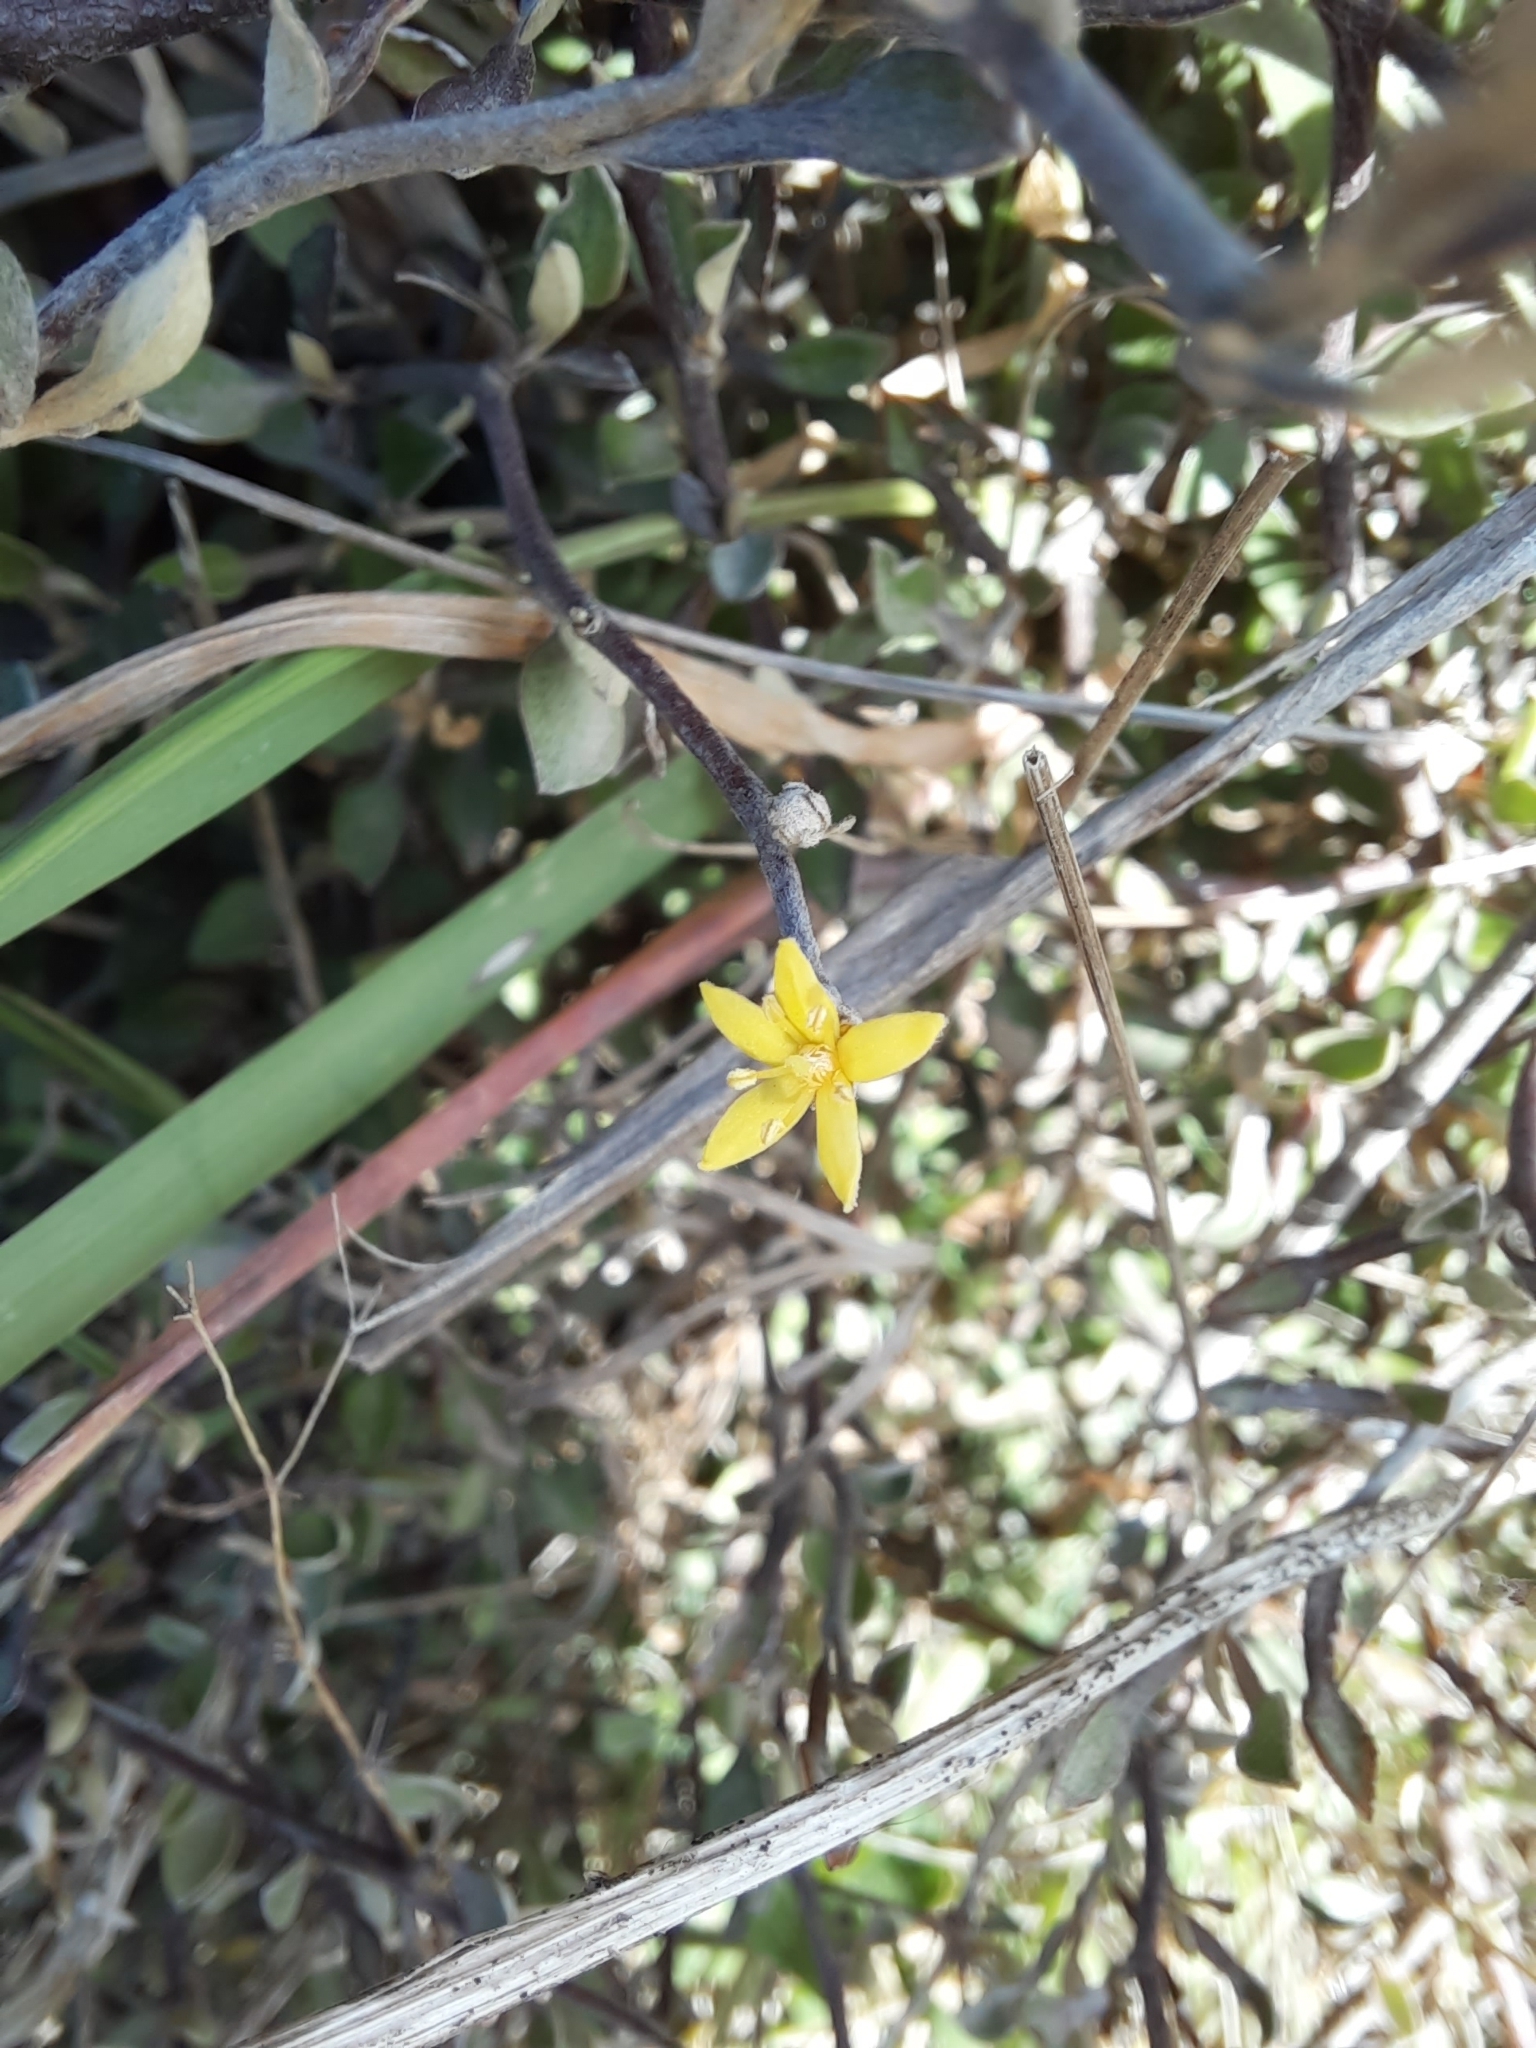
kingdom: Plantae
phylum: Tracheophyta
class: Magnoliopsida
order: Asterales
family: Argophyllaceae
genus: Corokia
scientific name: Corokia cotoneaster
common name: Wire nettingbush
